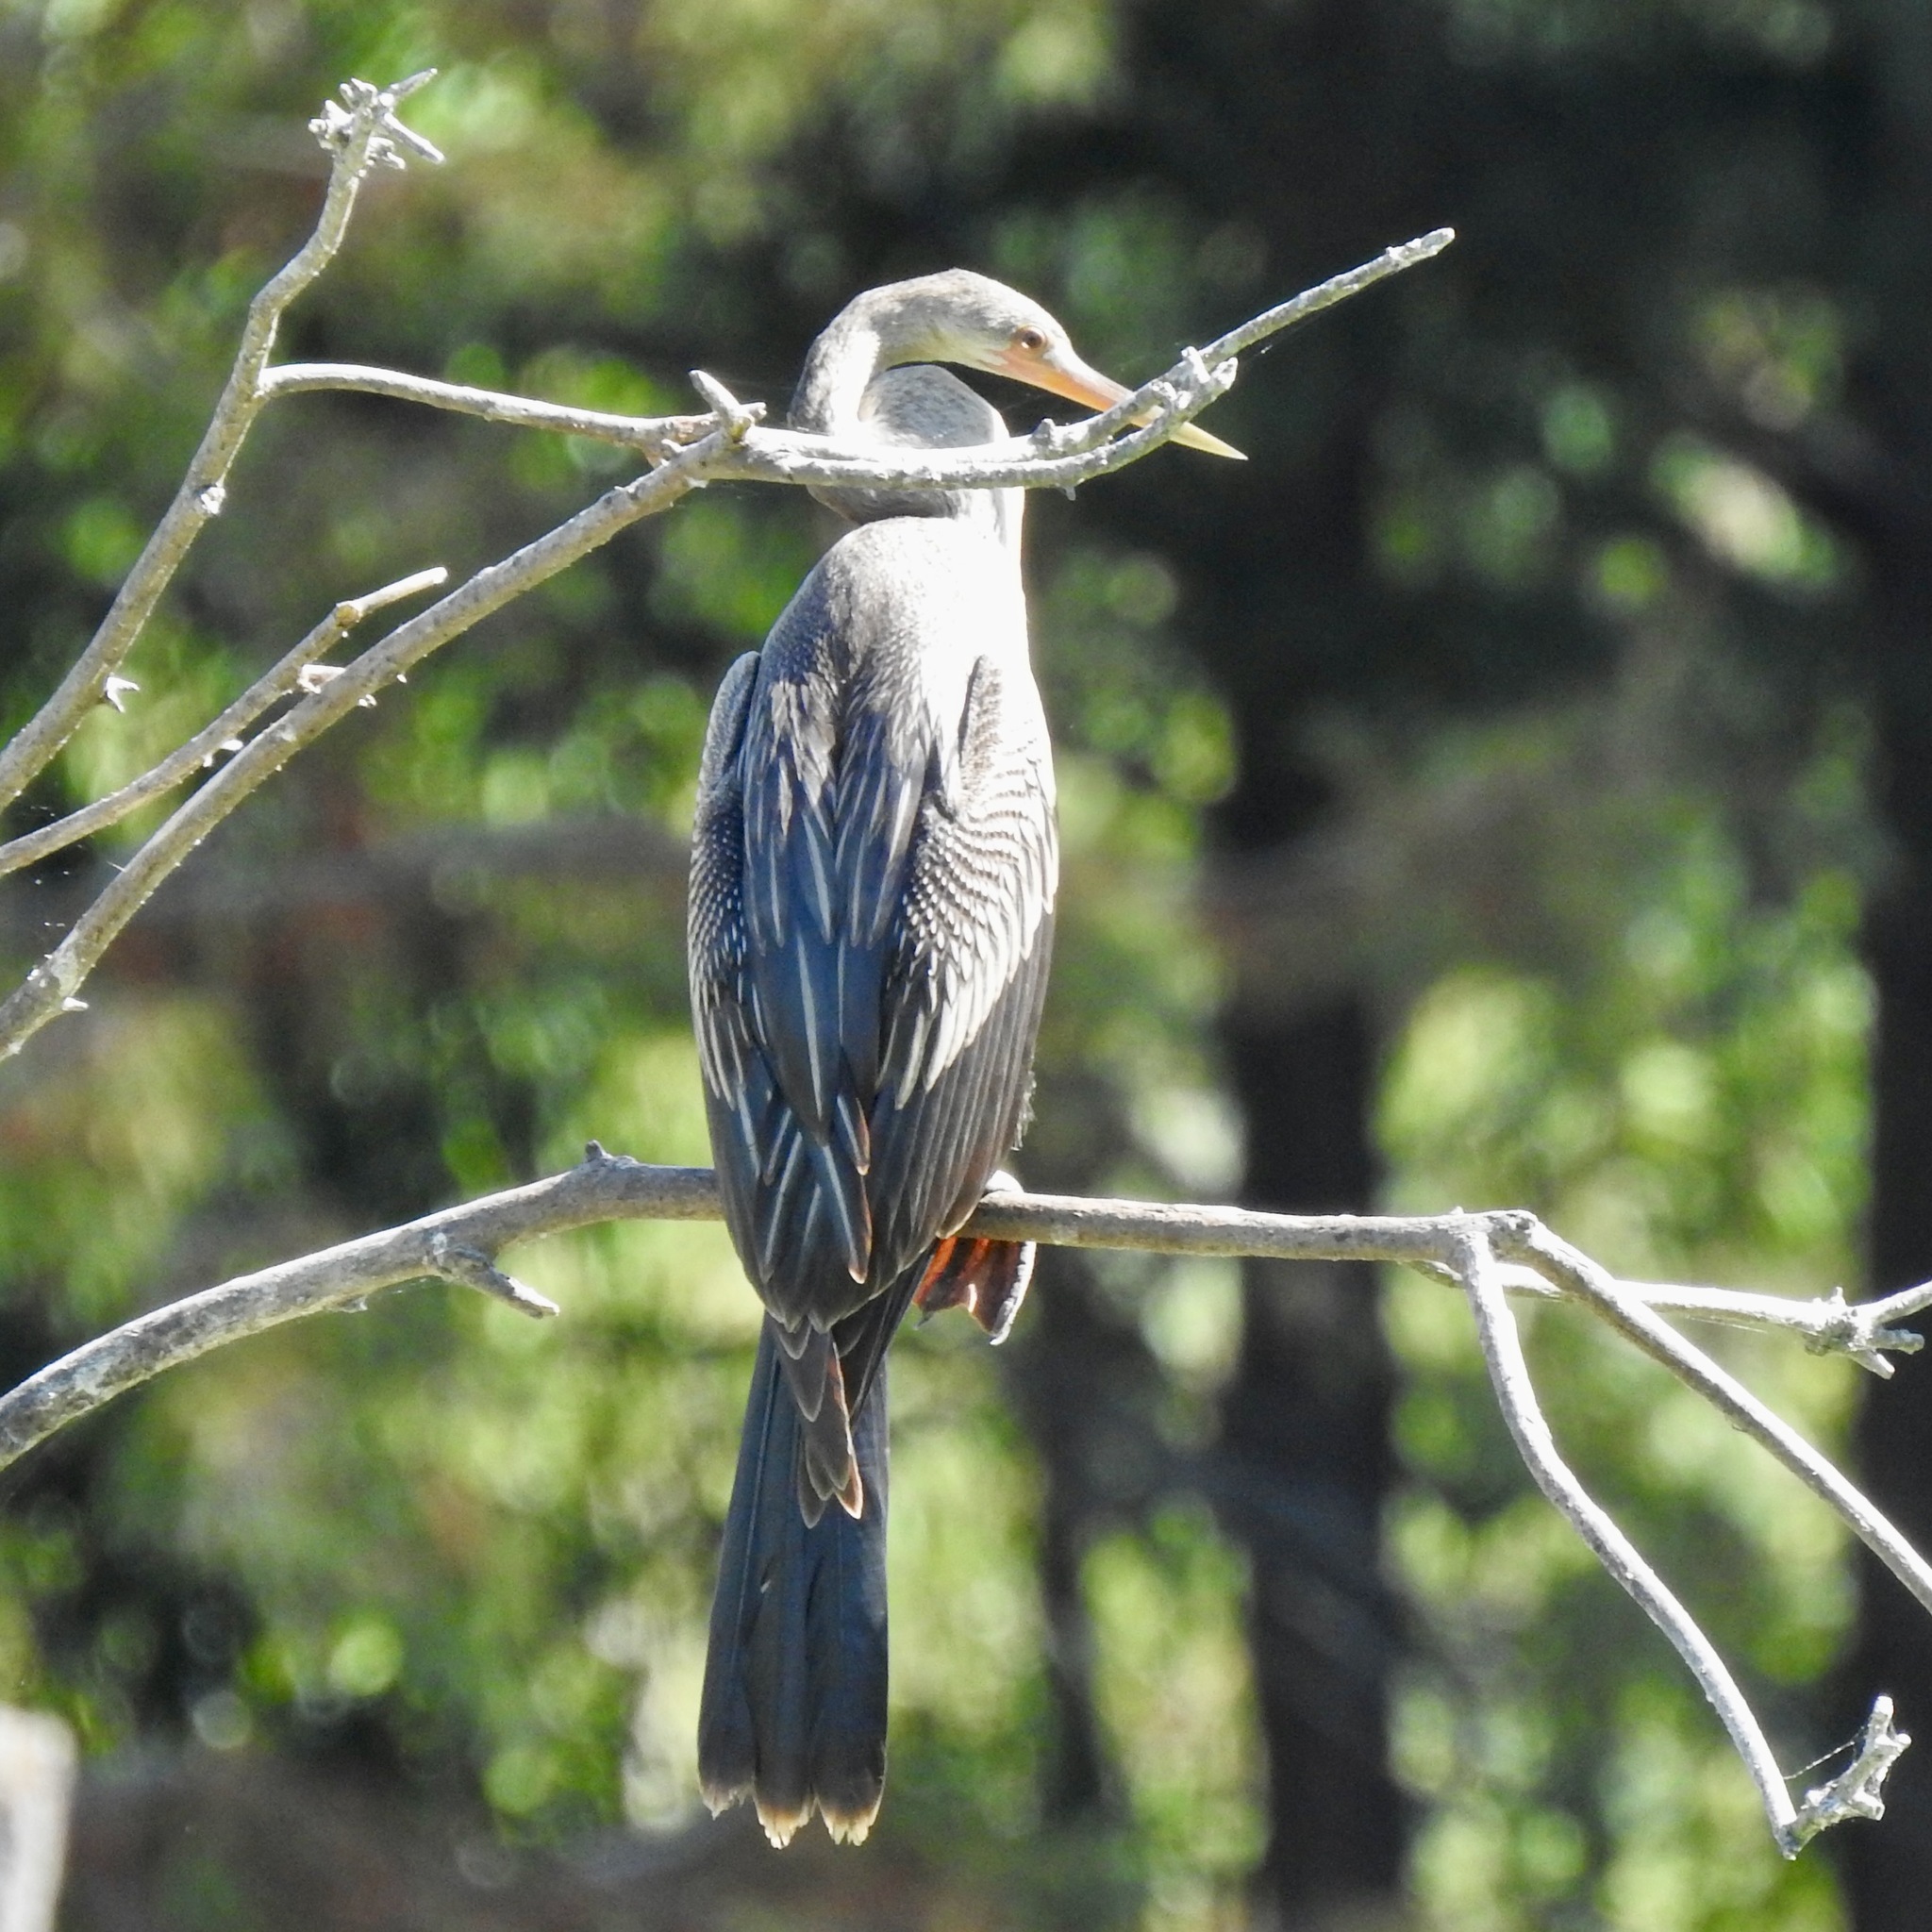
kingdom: Animalia
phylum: Chordata
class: Aves
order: Suliformes
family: Anhingidae
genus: Anhinga
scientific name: Anhinga anhinga
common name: Anhinga
